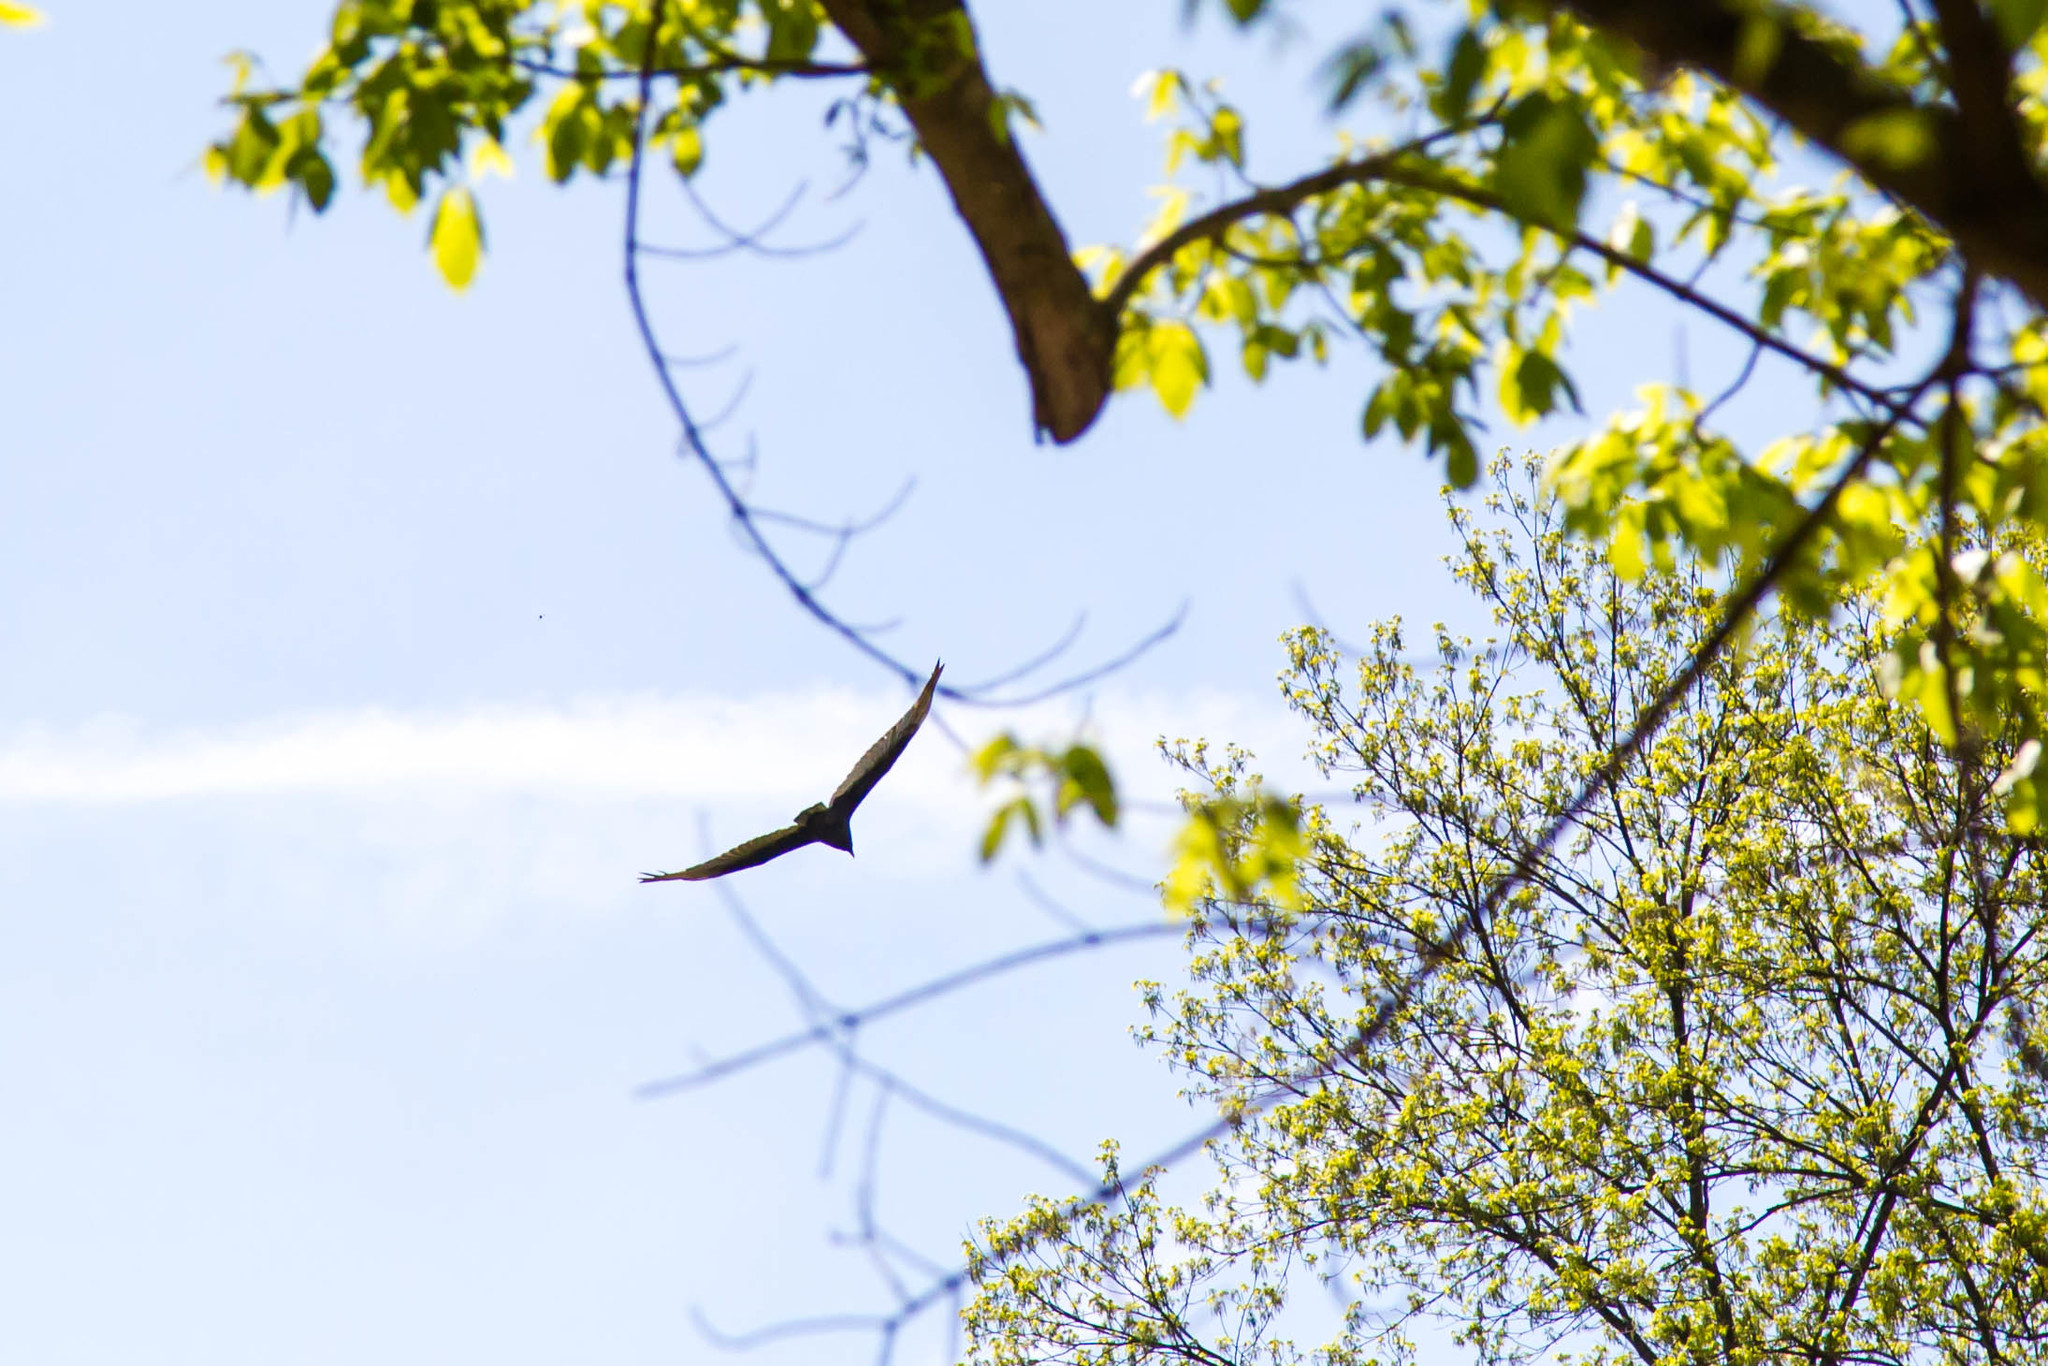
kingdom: Animalia
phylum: Chordata
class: Aves
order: Accipitriformes
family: Cathartidae
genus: Cathartes
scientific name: Cathartes aura
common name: Turkey vulture
